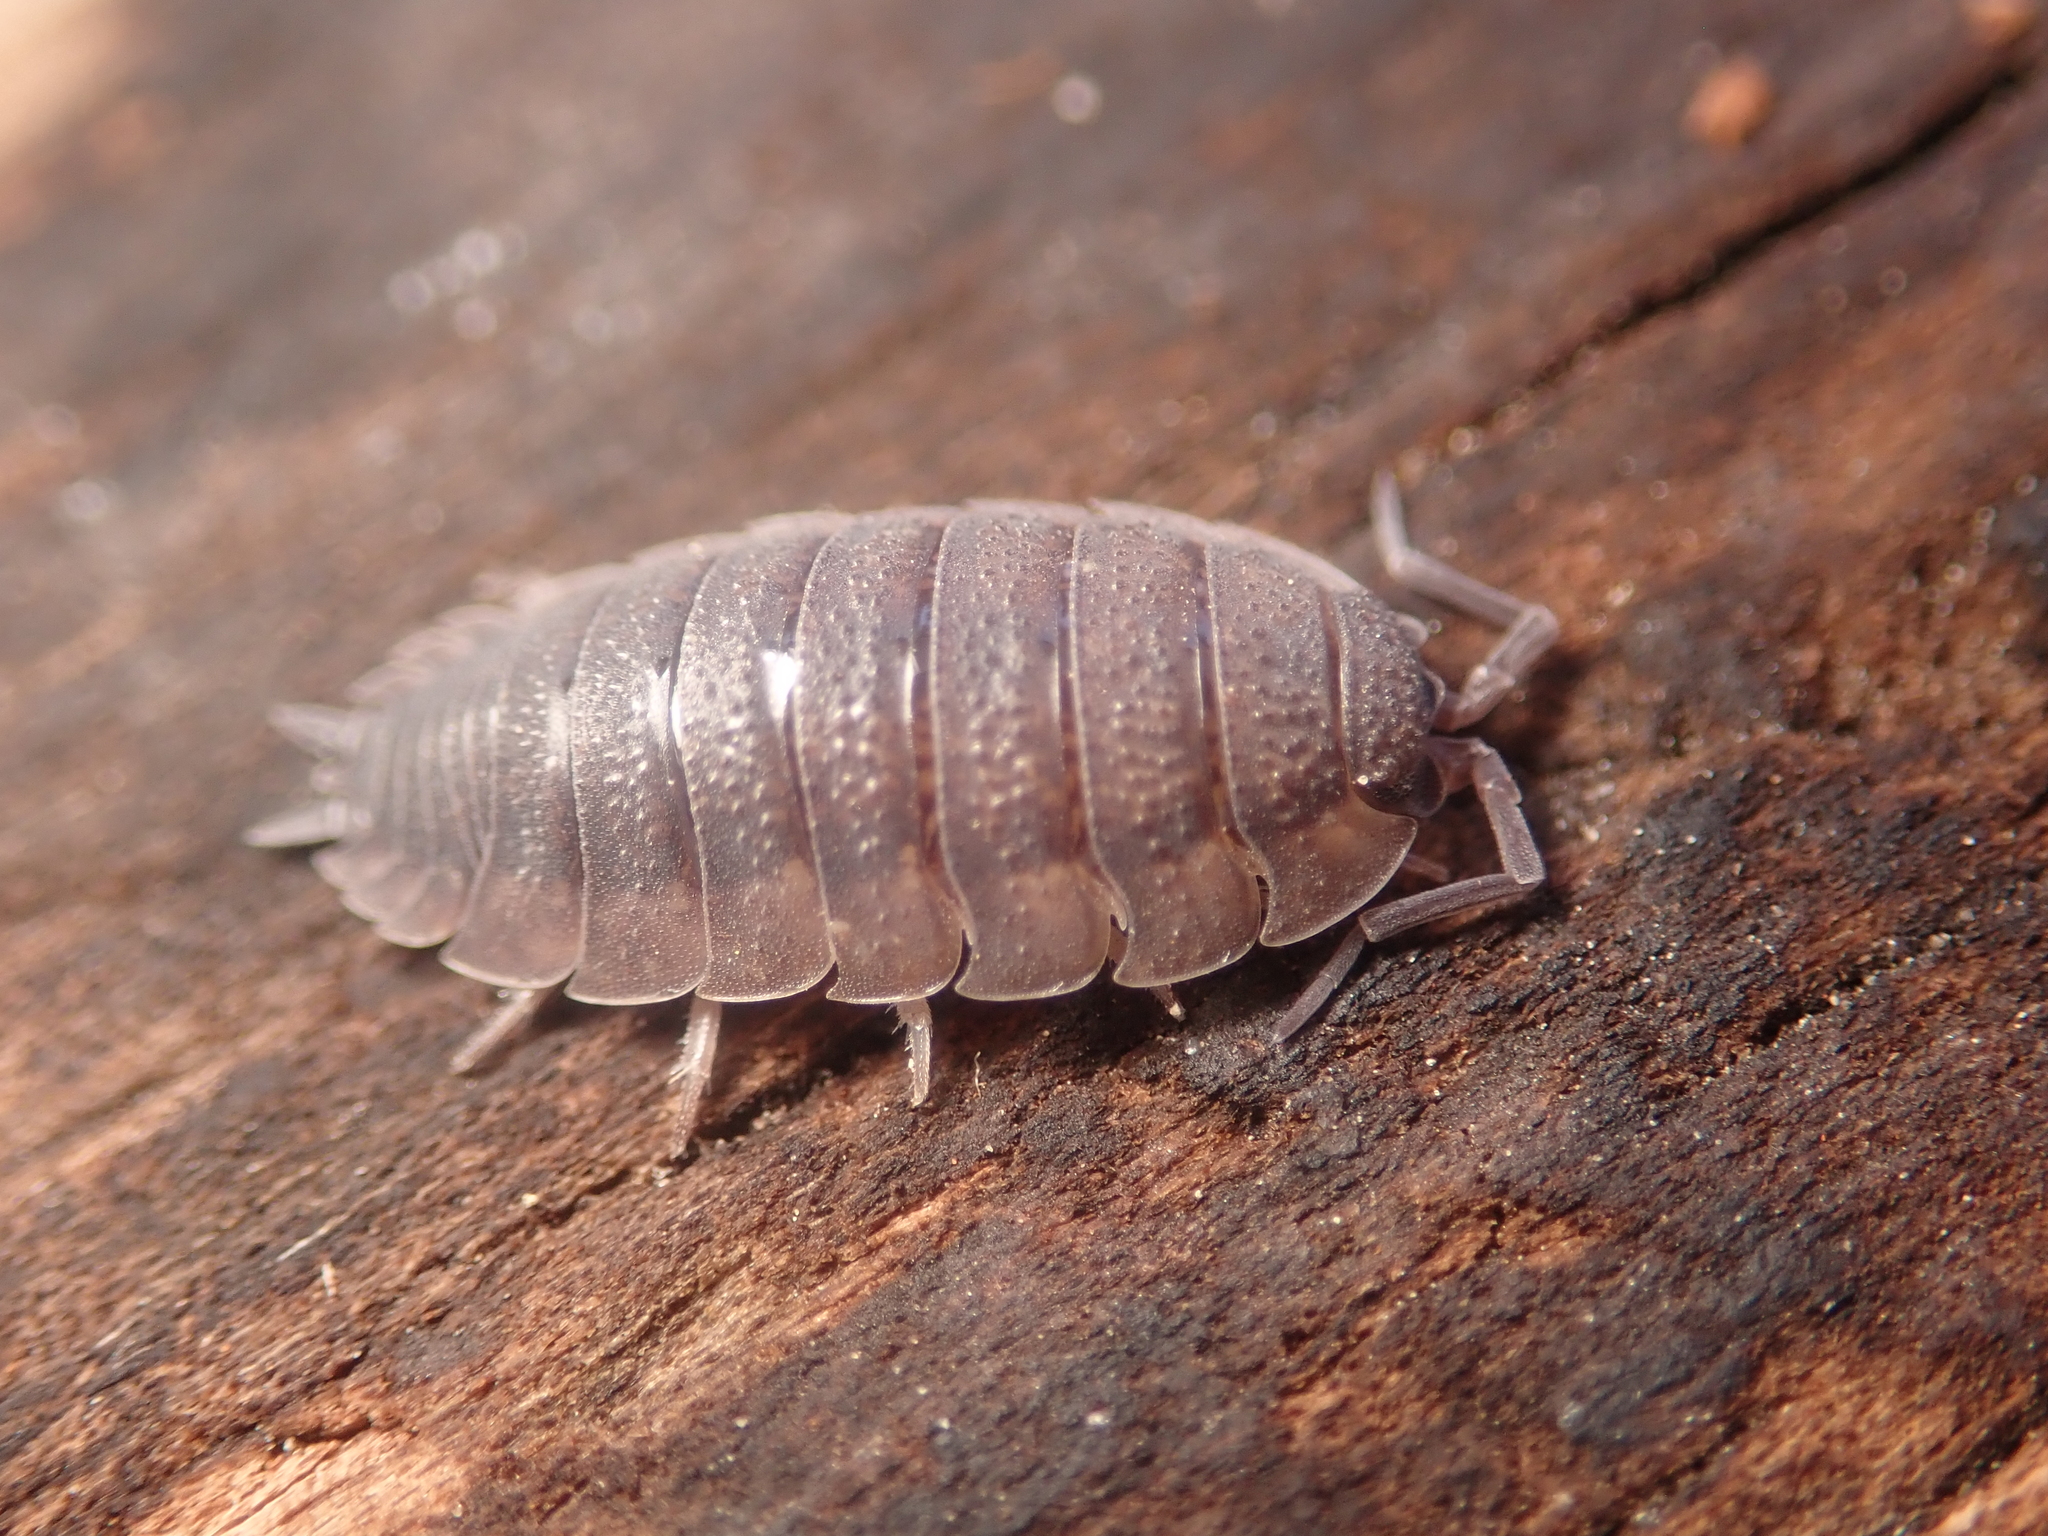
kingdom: Animalia
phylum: Arthropoda
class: Malacostraca
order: Isopoda
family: Porcellionidae
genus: Porcellio
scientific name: Porcellio scaber
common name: Common rough woodlouse
